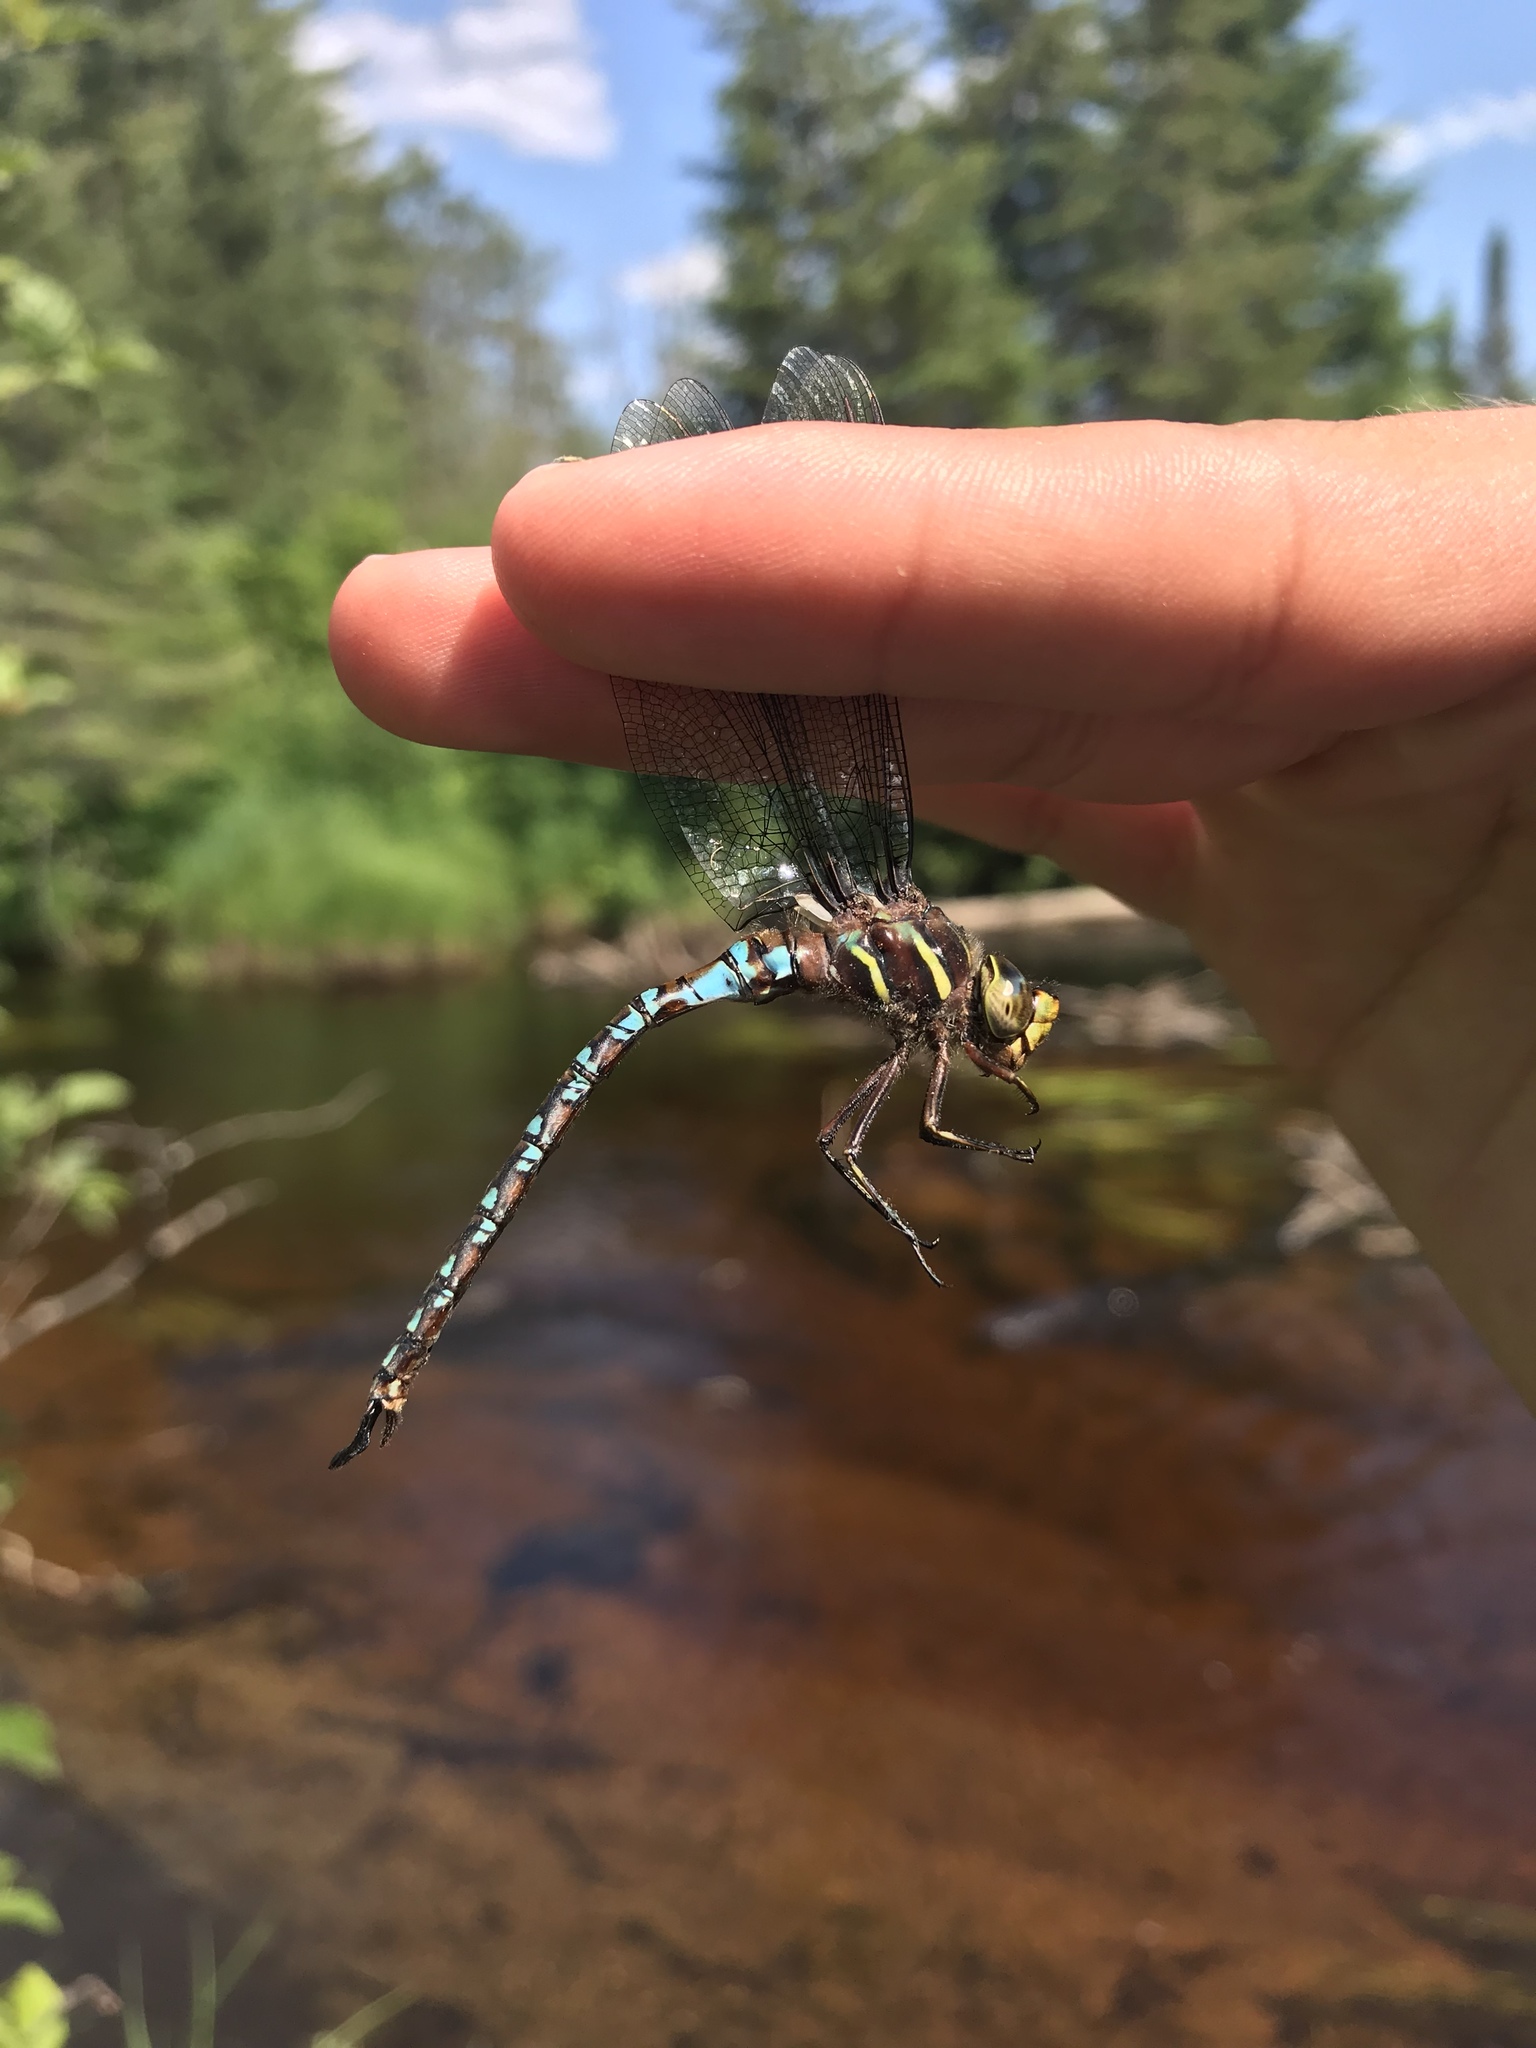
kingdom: Animalia
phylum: Arthropoda
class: Insecta
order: Odonata
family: Aeshnidae
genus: Basiaeschna
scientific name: Basiaeschna janata
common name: Springtime darner
